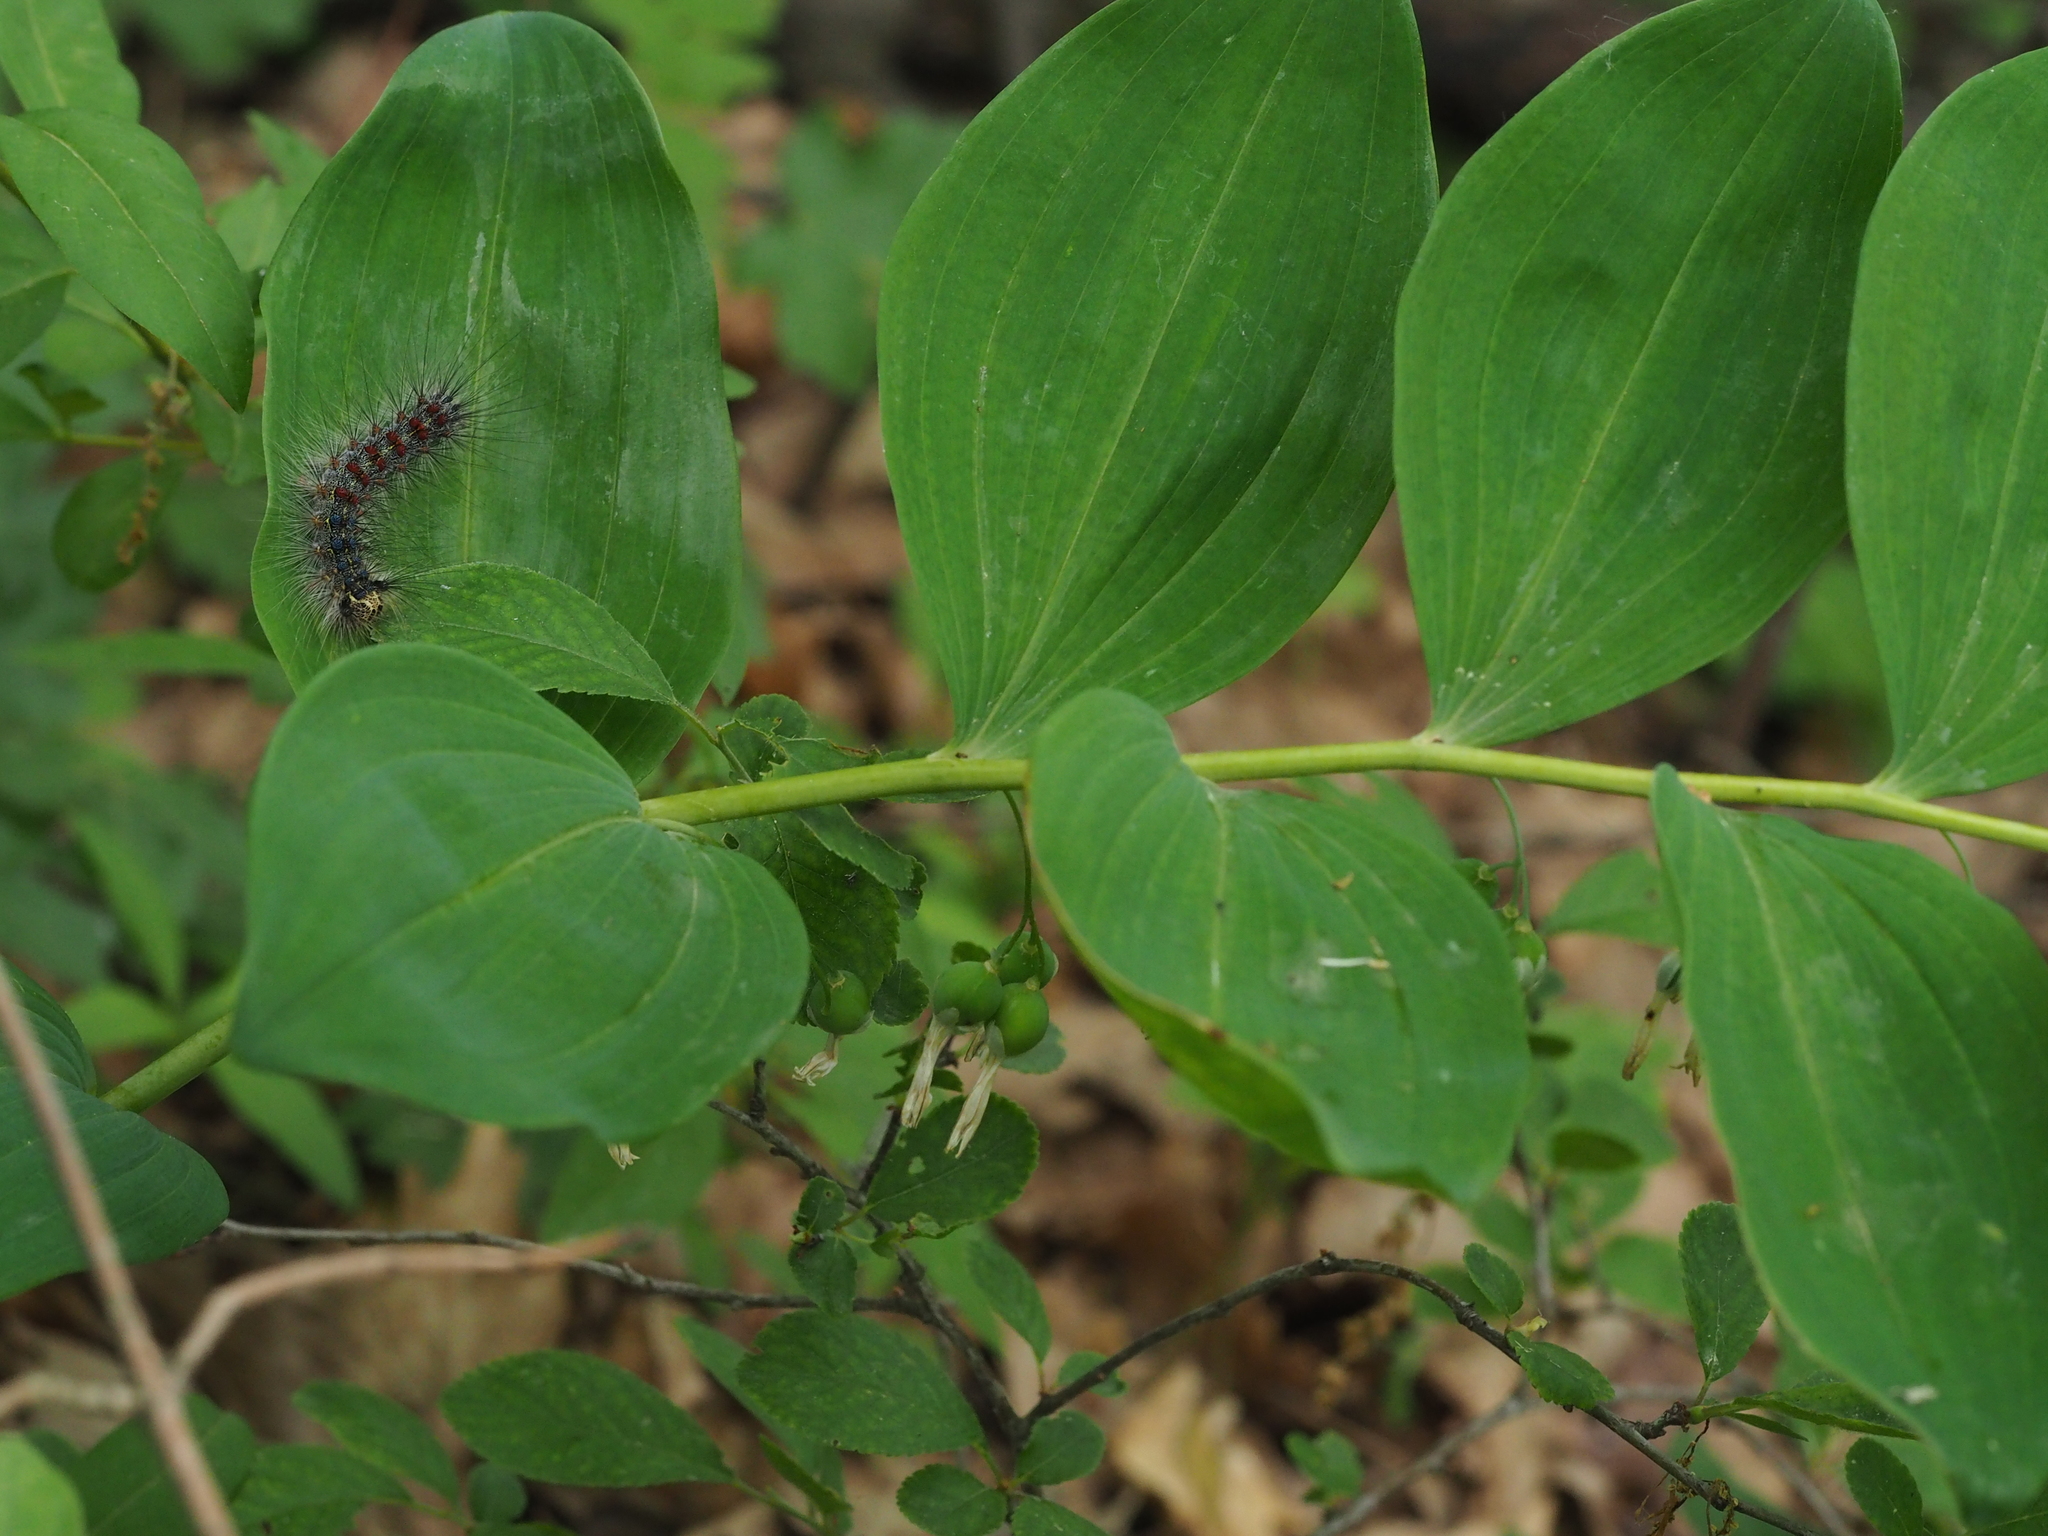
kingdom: Animalia
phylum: Arthropoda
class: Insecta
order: Lepidoptera
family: Erebidae
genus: Lymantria
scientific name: Lymantria dispar
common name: Gypsy moth
